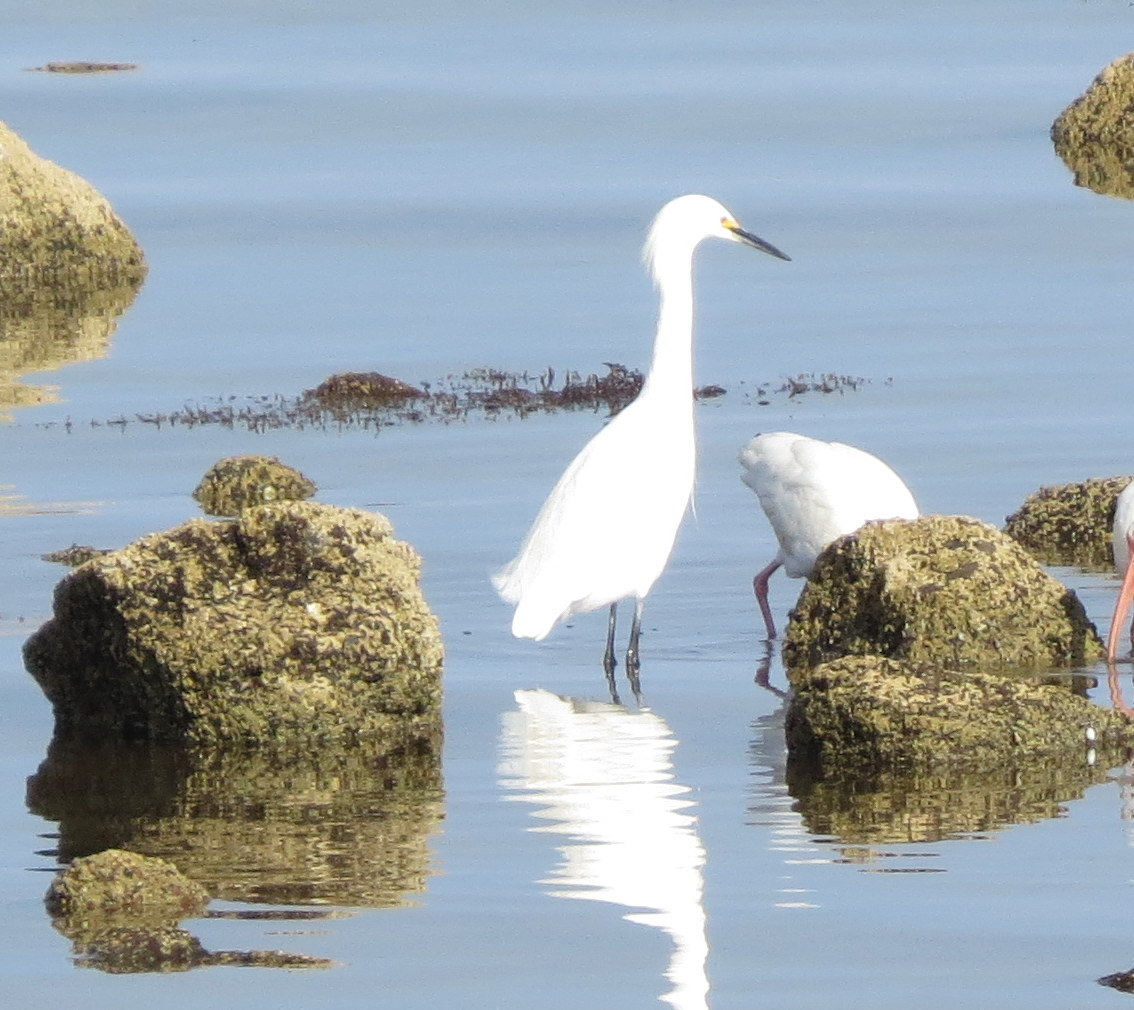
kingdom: Animalia
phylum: Chordata
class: Aves
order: Pelecaniformes
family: Ardeidae
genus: Egretta
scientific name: Egretta thula
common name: Snowy egret
